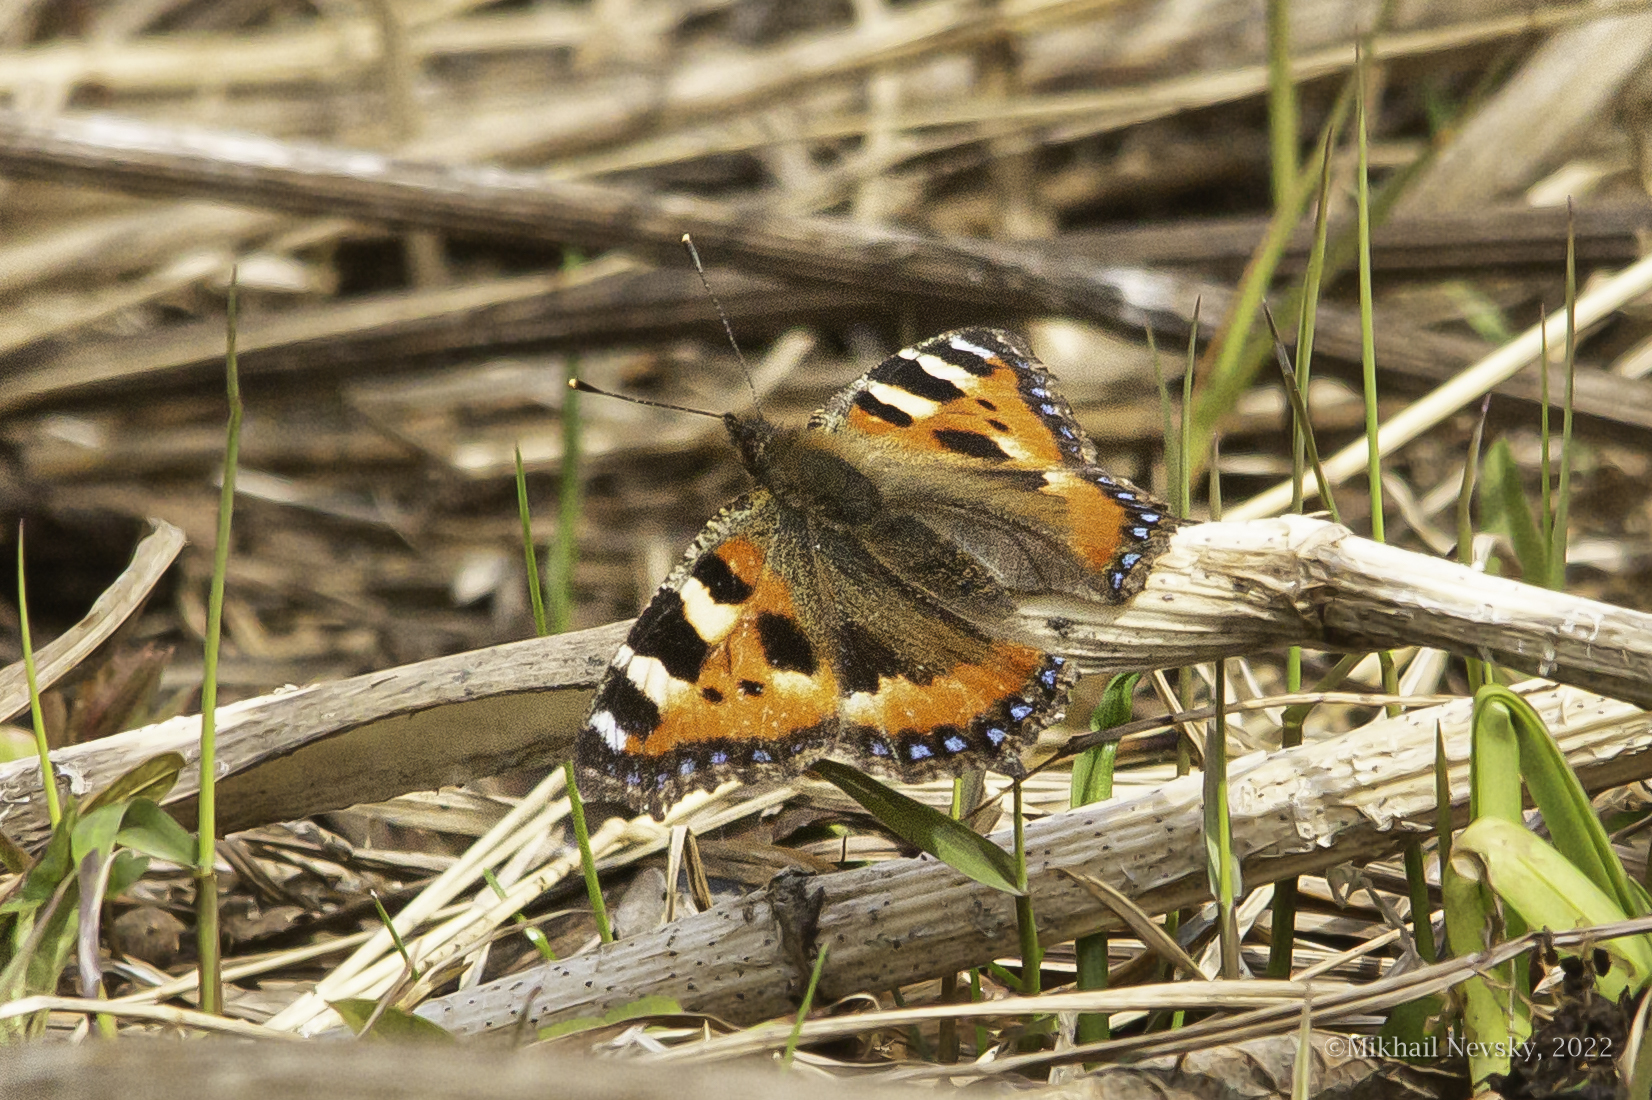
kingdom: Animalia
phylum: Arthropoda
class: Insecta
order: Lepidoptera
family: Nymphalidae
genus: Aglais
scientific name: Aglais urticae
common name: Small tortoiseshell
